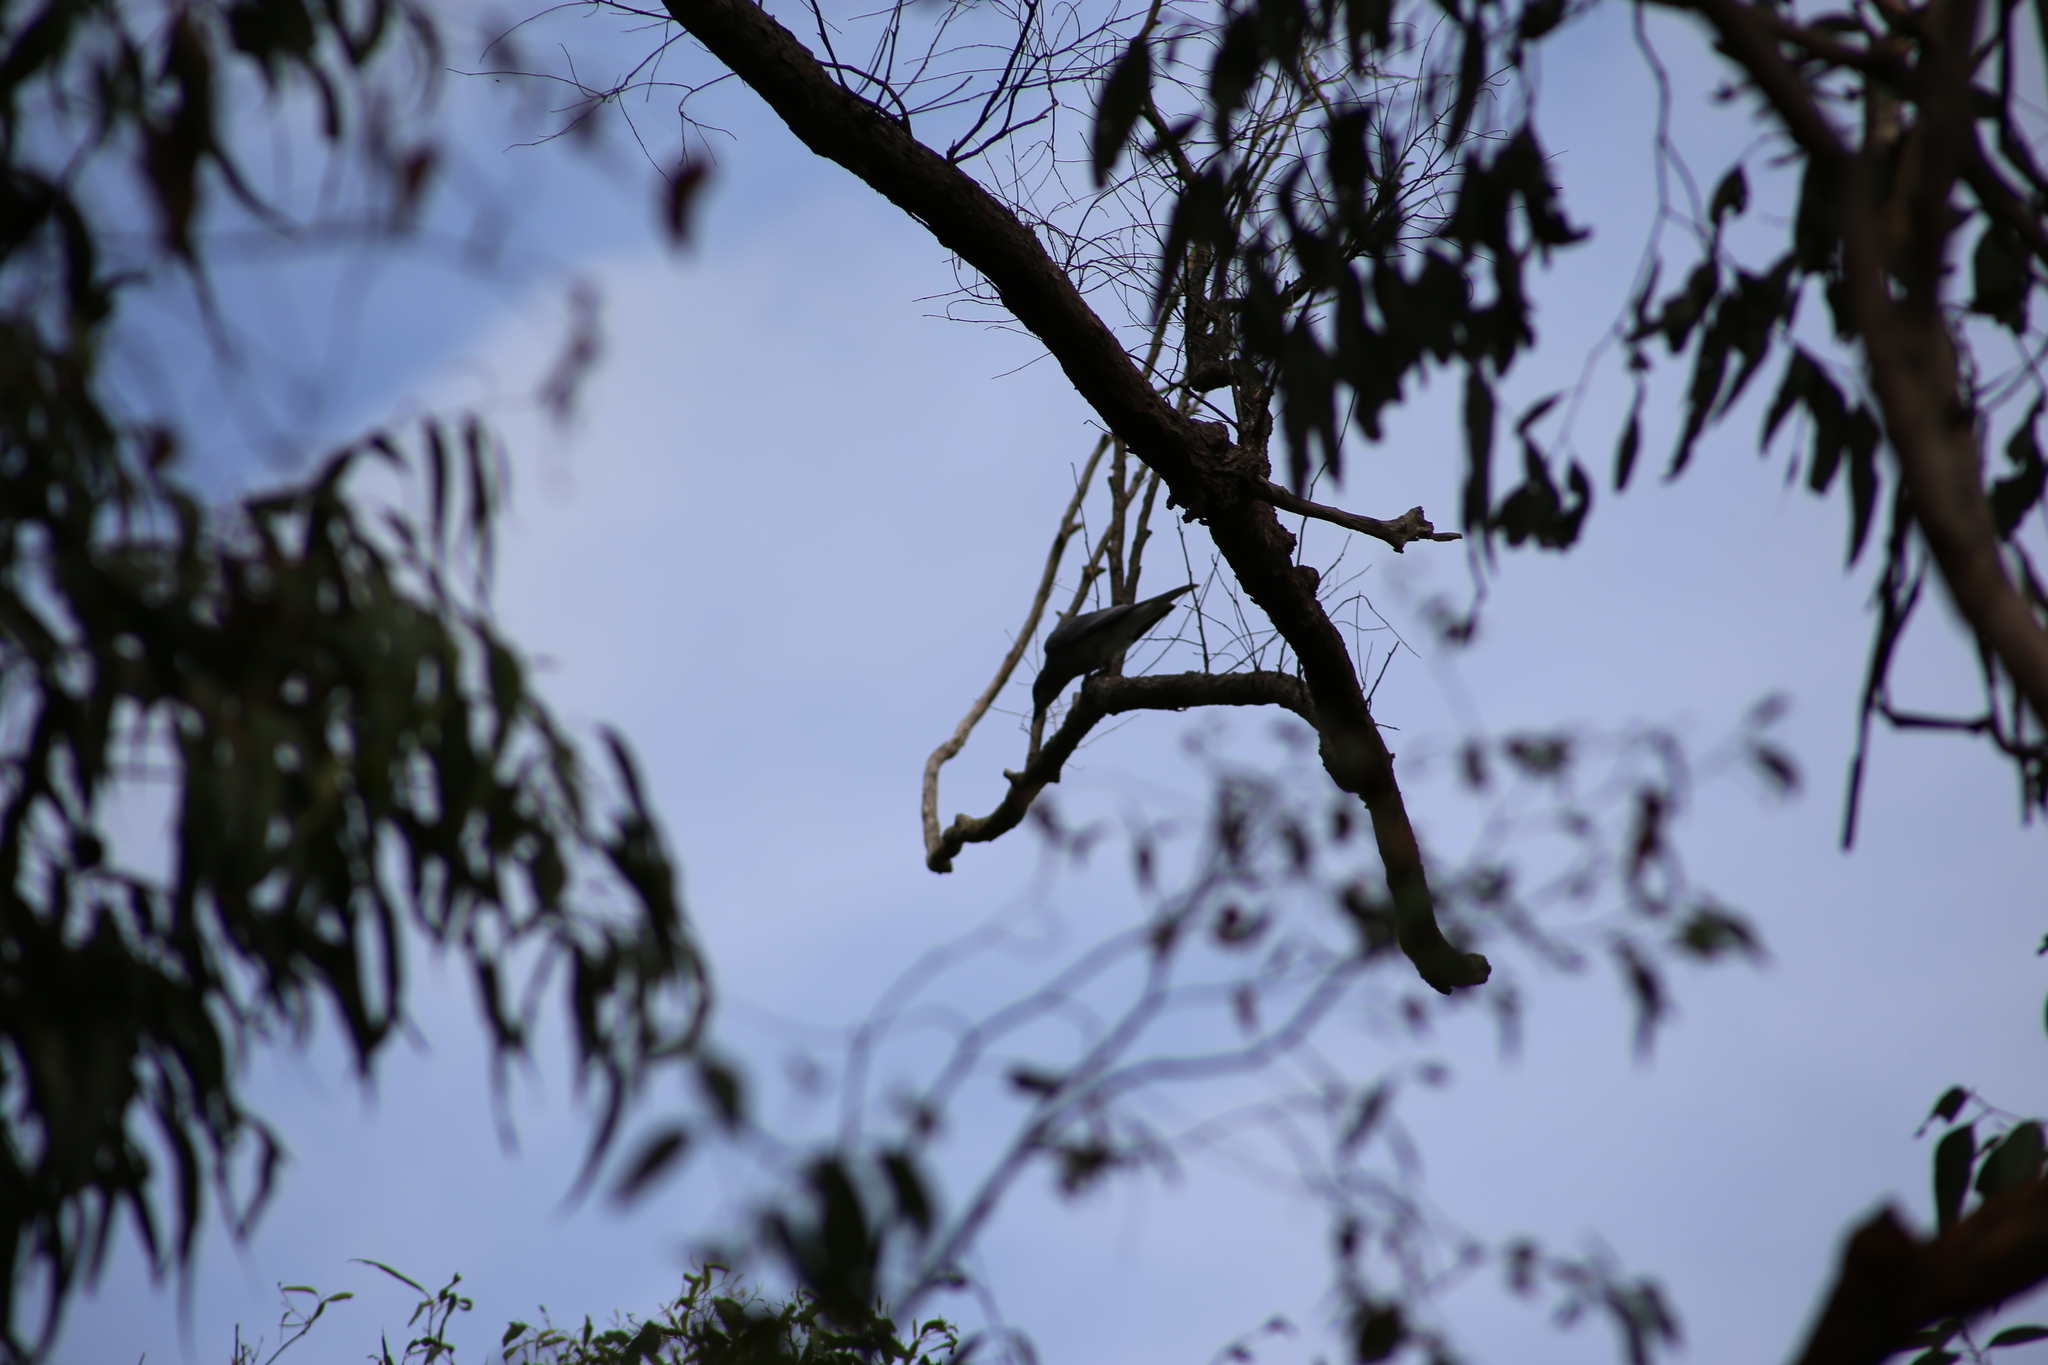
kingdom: Animalia
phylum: Chordata
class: Aves
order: Passeriformes
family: Campephagidae
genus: Coracina
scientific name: Coracina novaehollandiae
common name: Black-faced cuckooshrike
